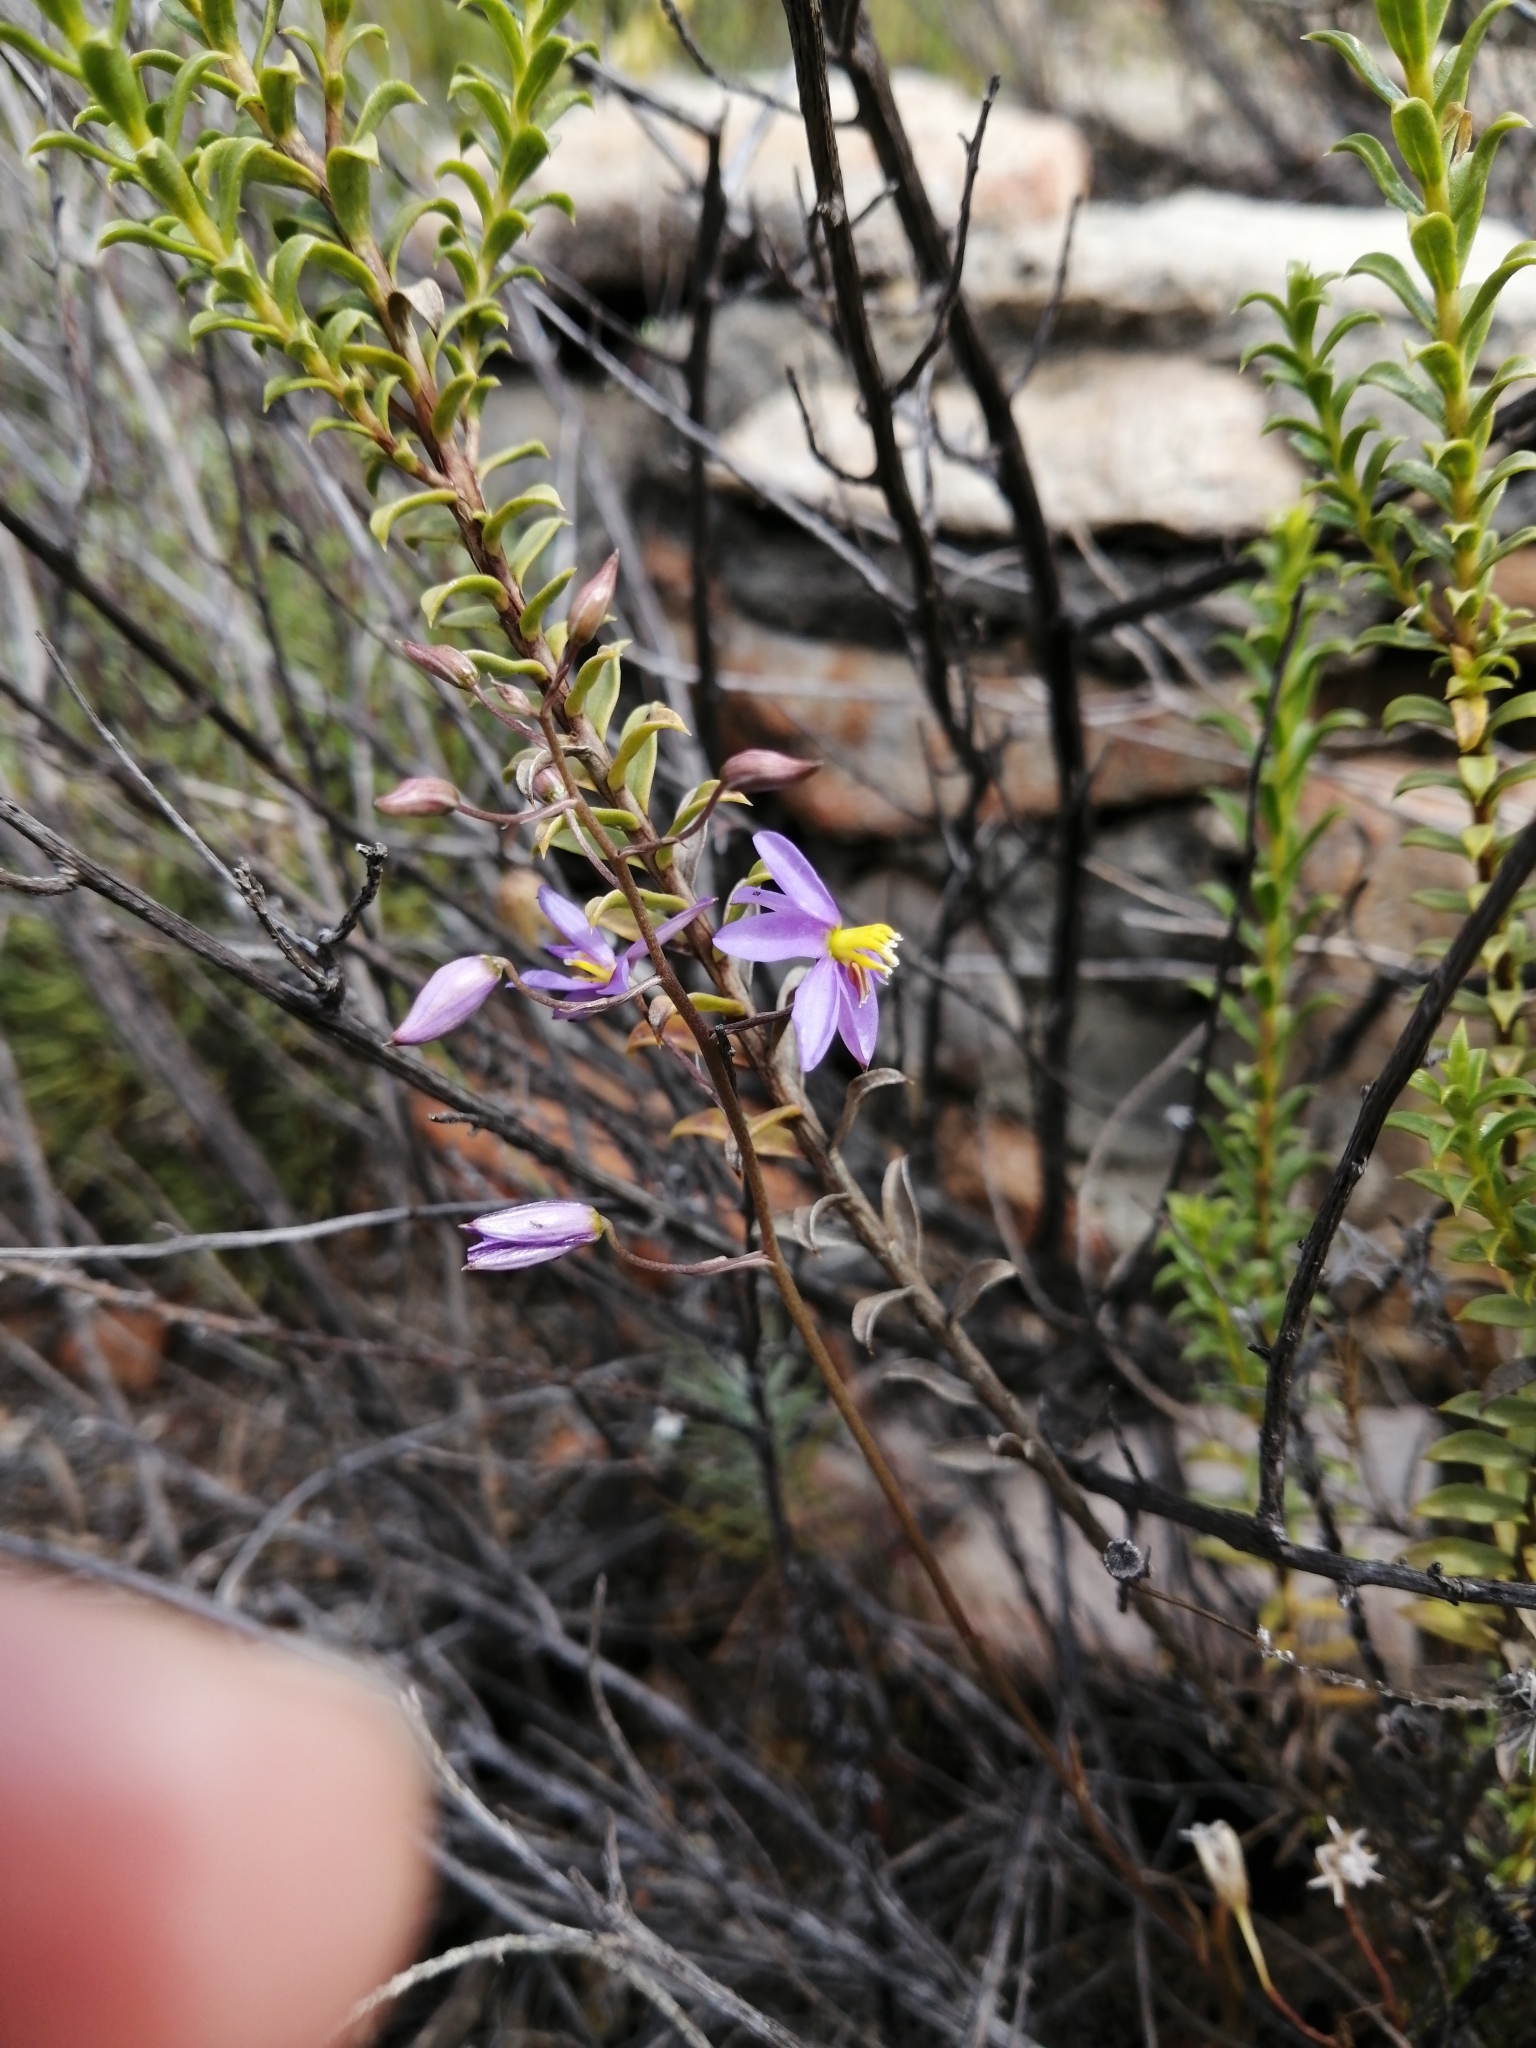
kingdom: Plantae
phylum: Tracheophyta
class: Liliopsida
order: Asparagales
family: Tecophilaeaceae
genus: Cyanella
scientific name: Cyanella hyacinthoides
